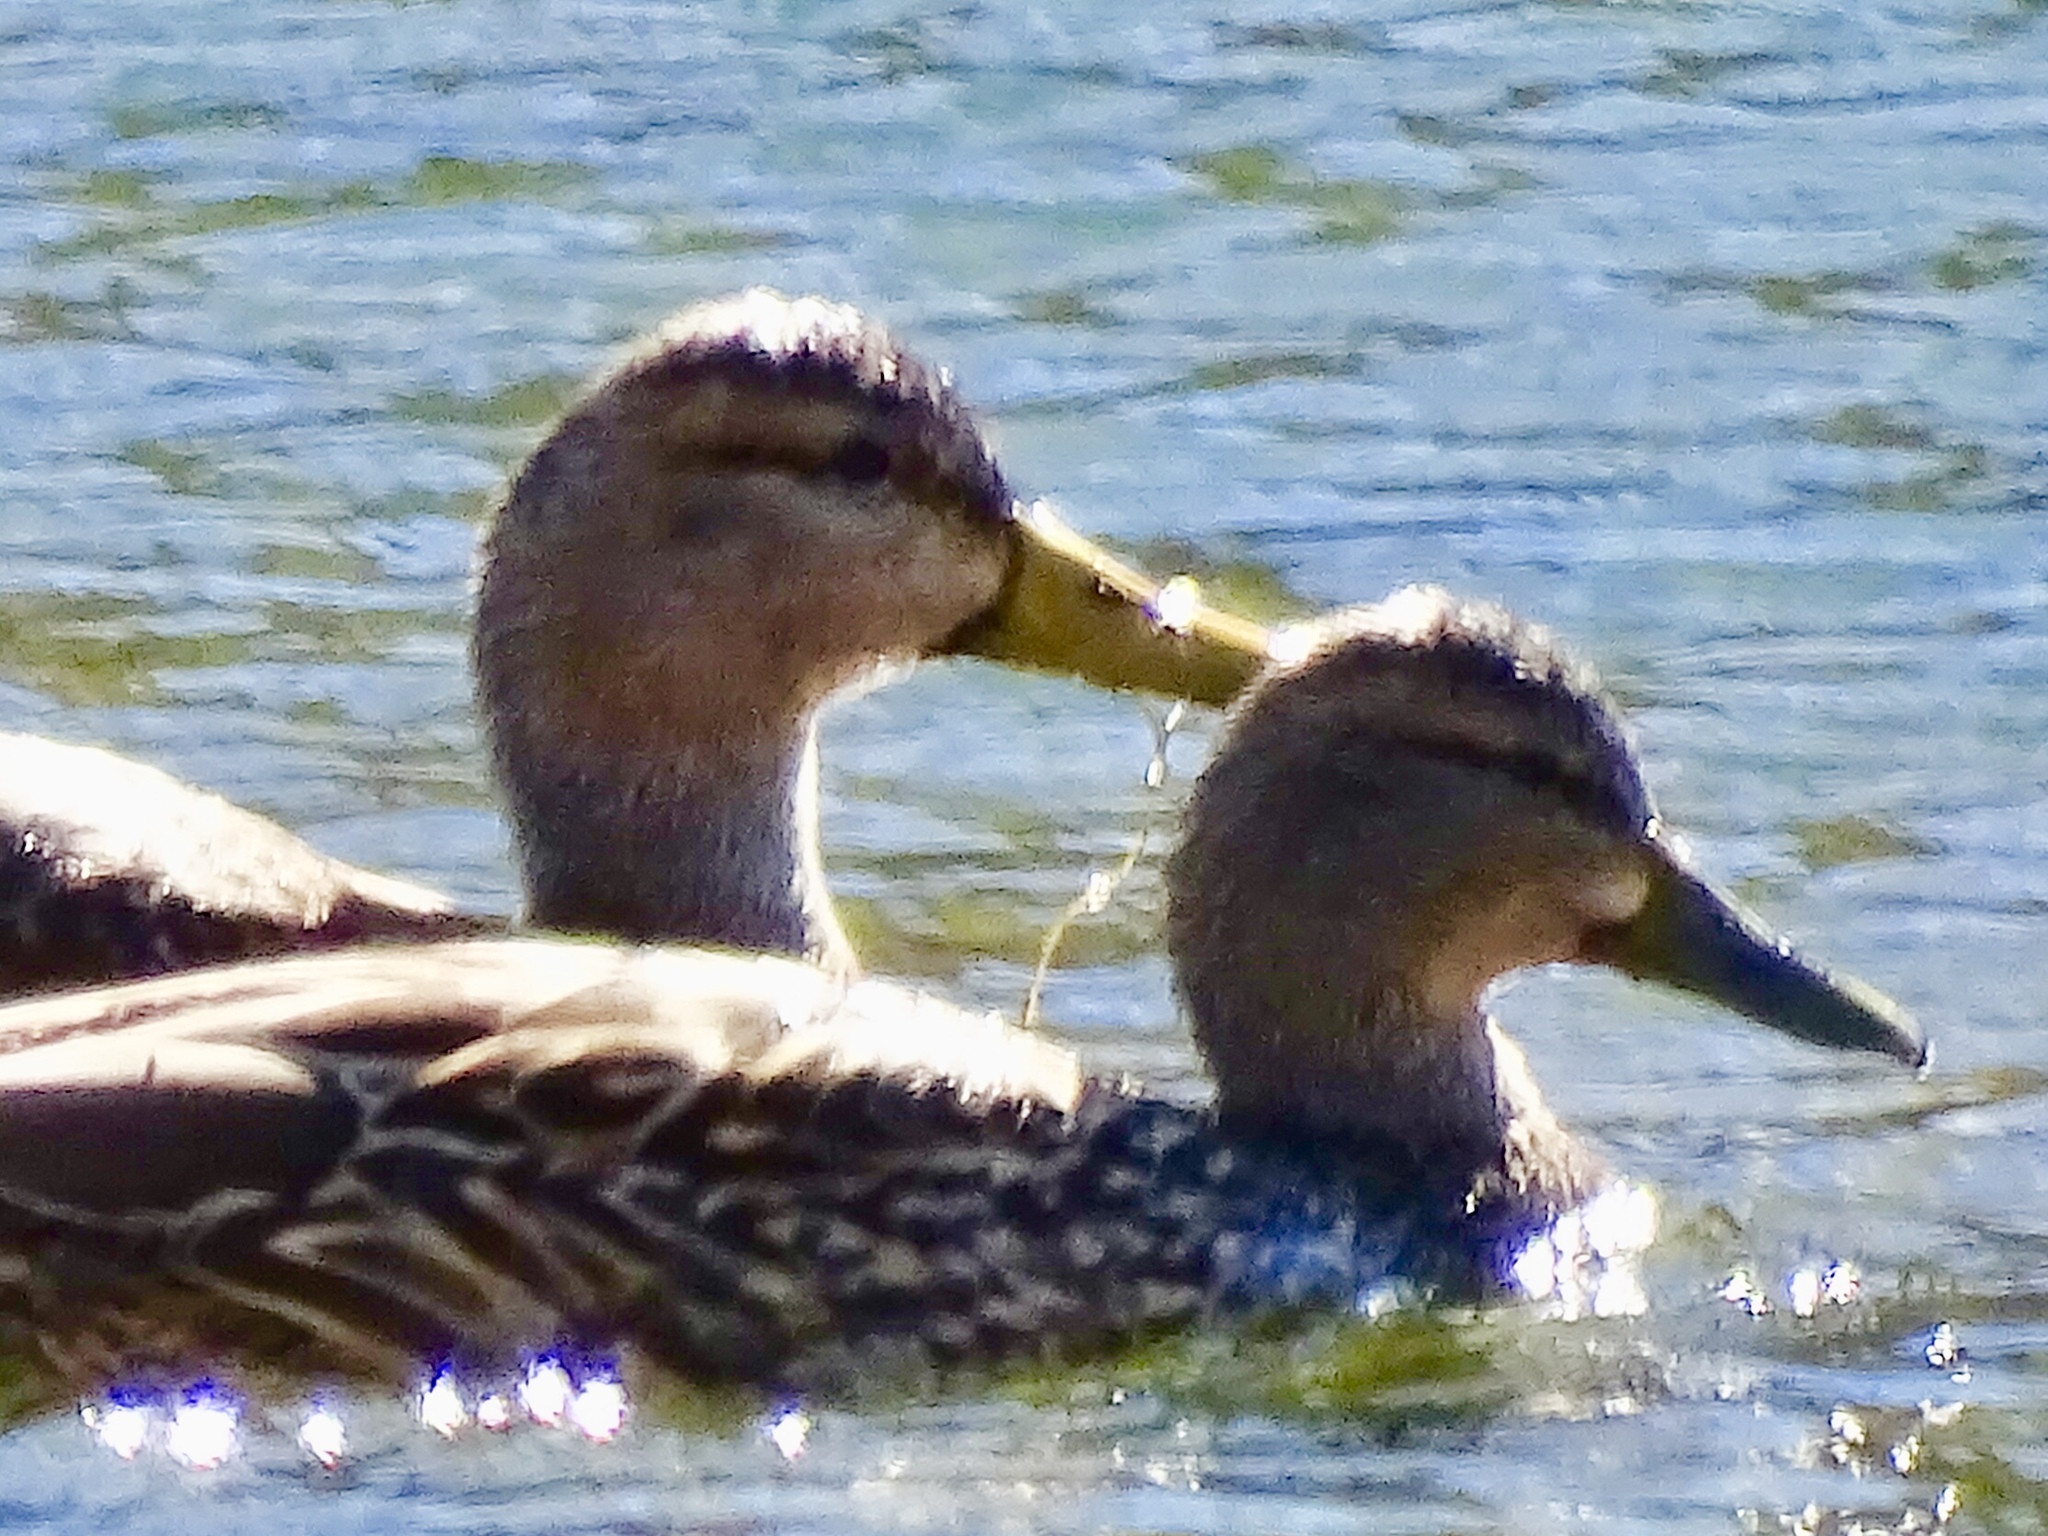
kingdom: Animalia
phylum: Chordata
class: Aves
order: Anseriformes
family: Anatidae
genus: Anas
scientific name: Anas
